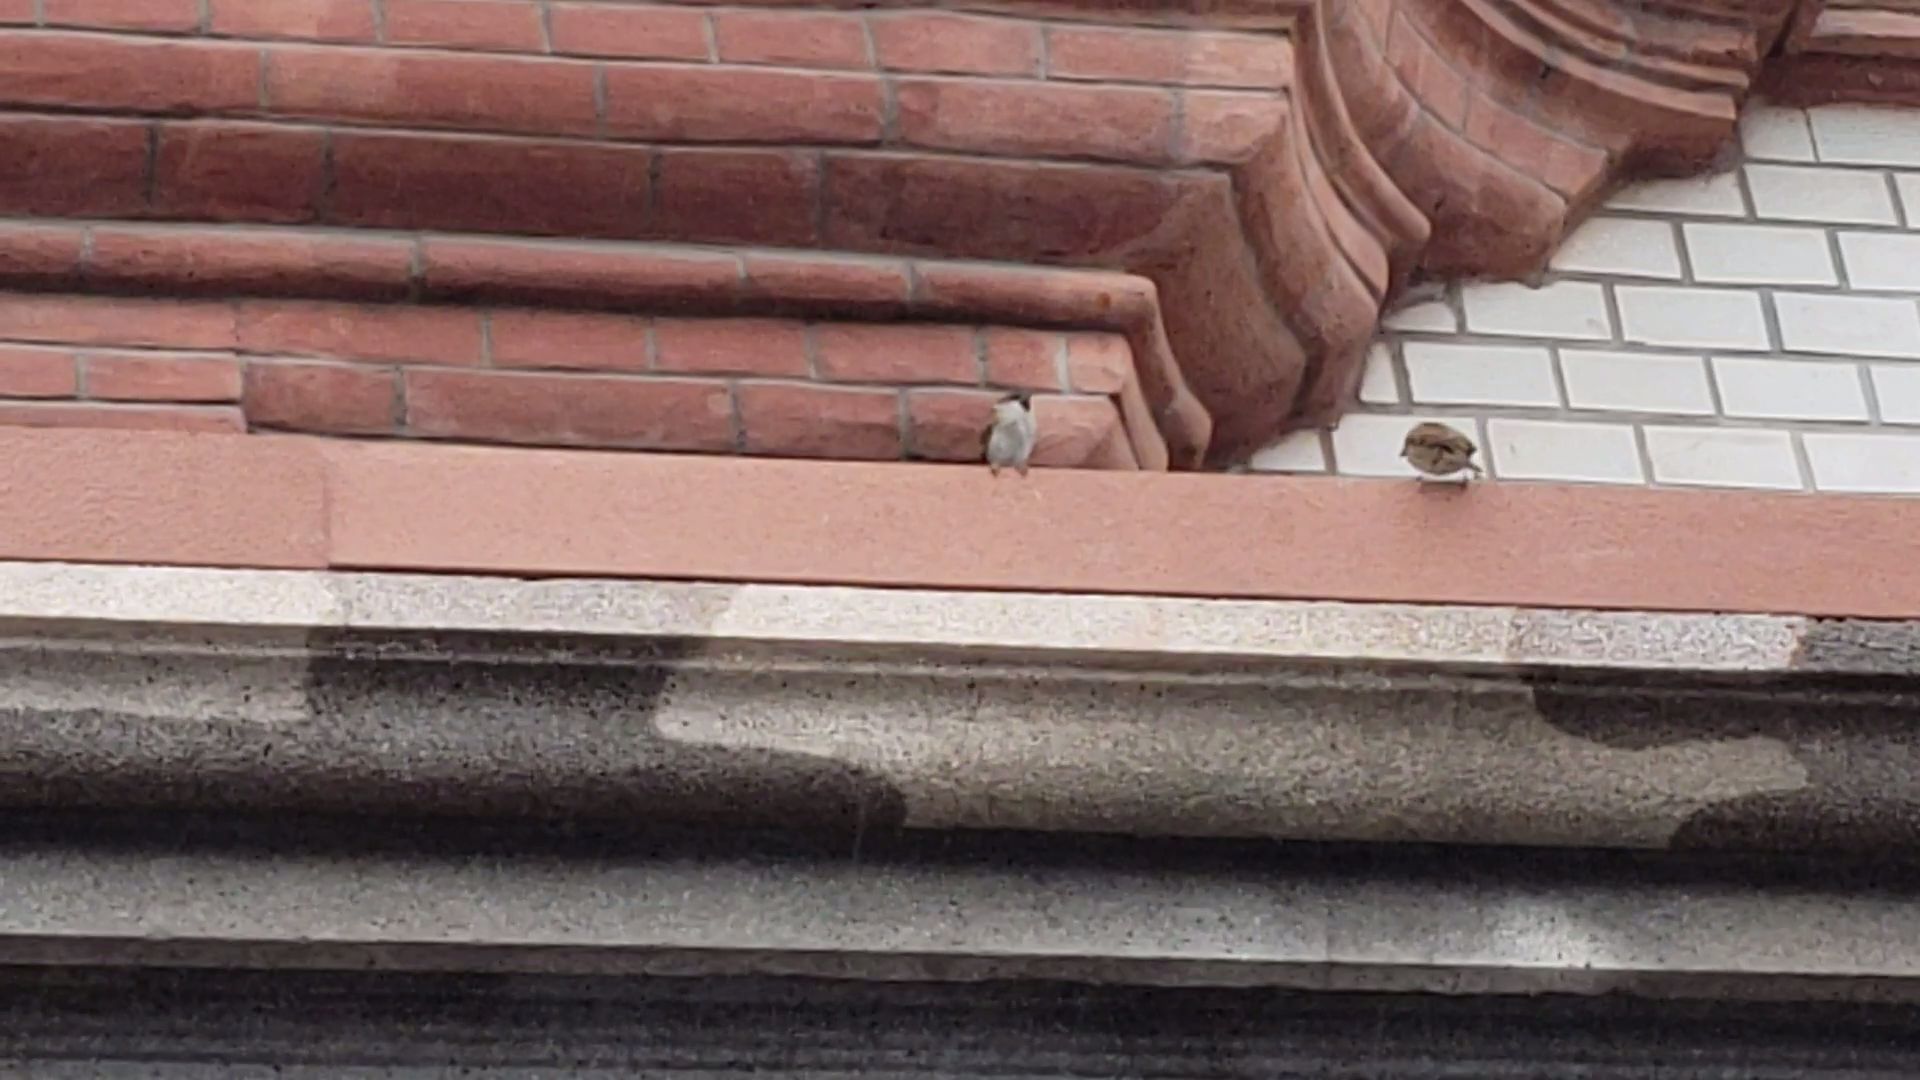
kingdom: Animalia
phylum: Chordata
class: Aves
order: Passeriformes
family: Passeridae
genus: Passer
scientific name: Passer montanus
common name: Eurasian tree sparrow
